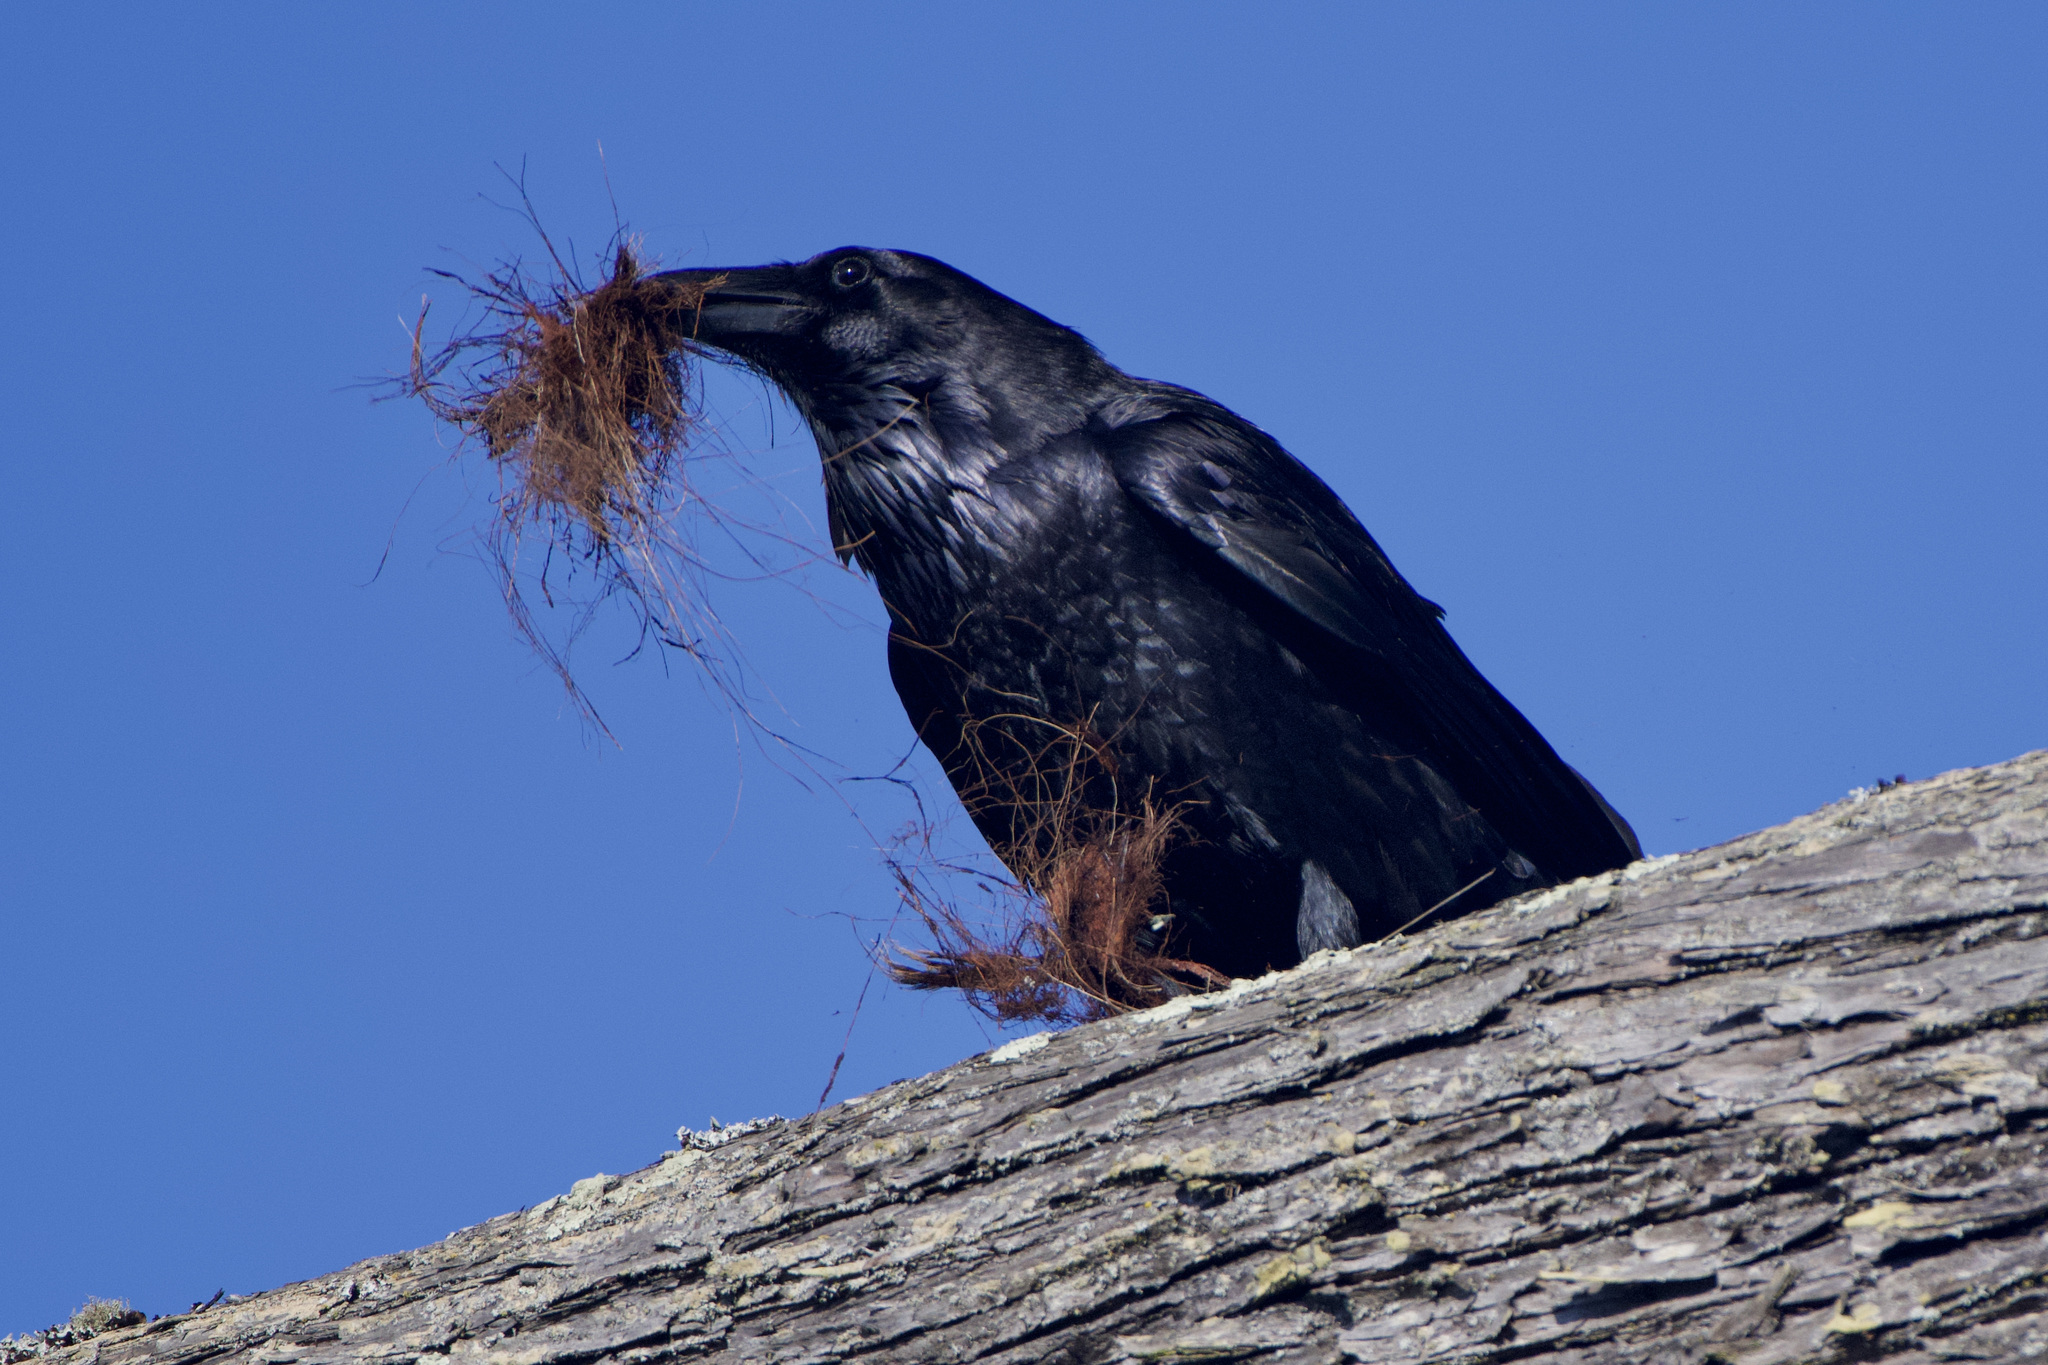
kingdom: Animalia
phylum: Chordata
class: Aves
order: Passeriformes
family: Corvidae
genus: Corvus
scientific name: Corvus corax
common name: Common raven
